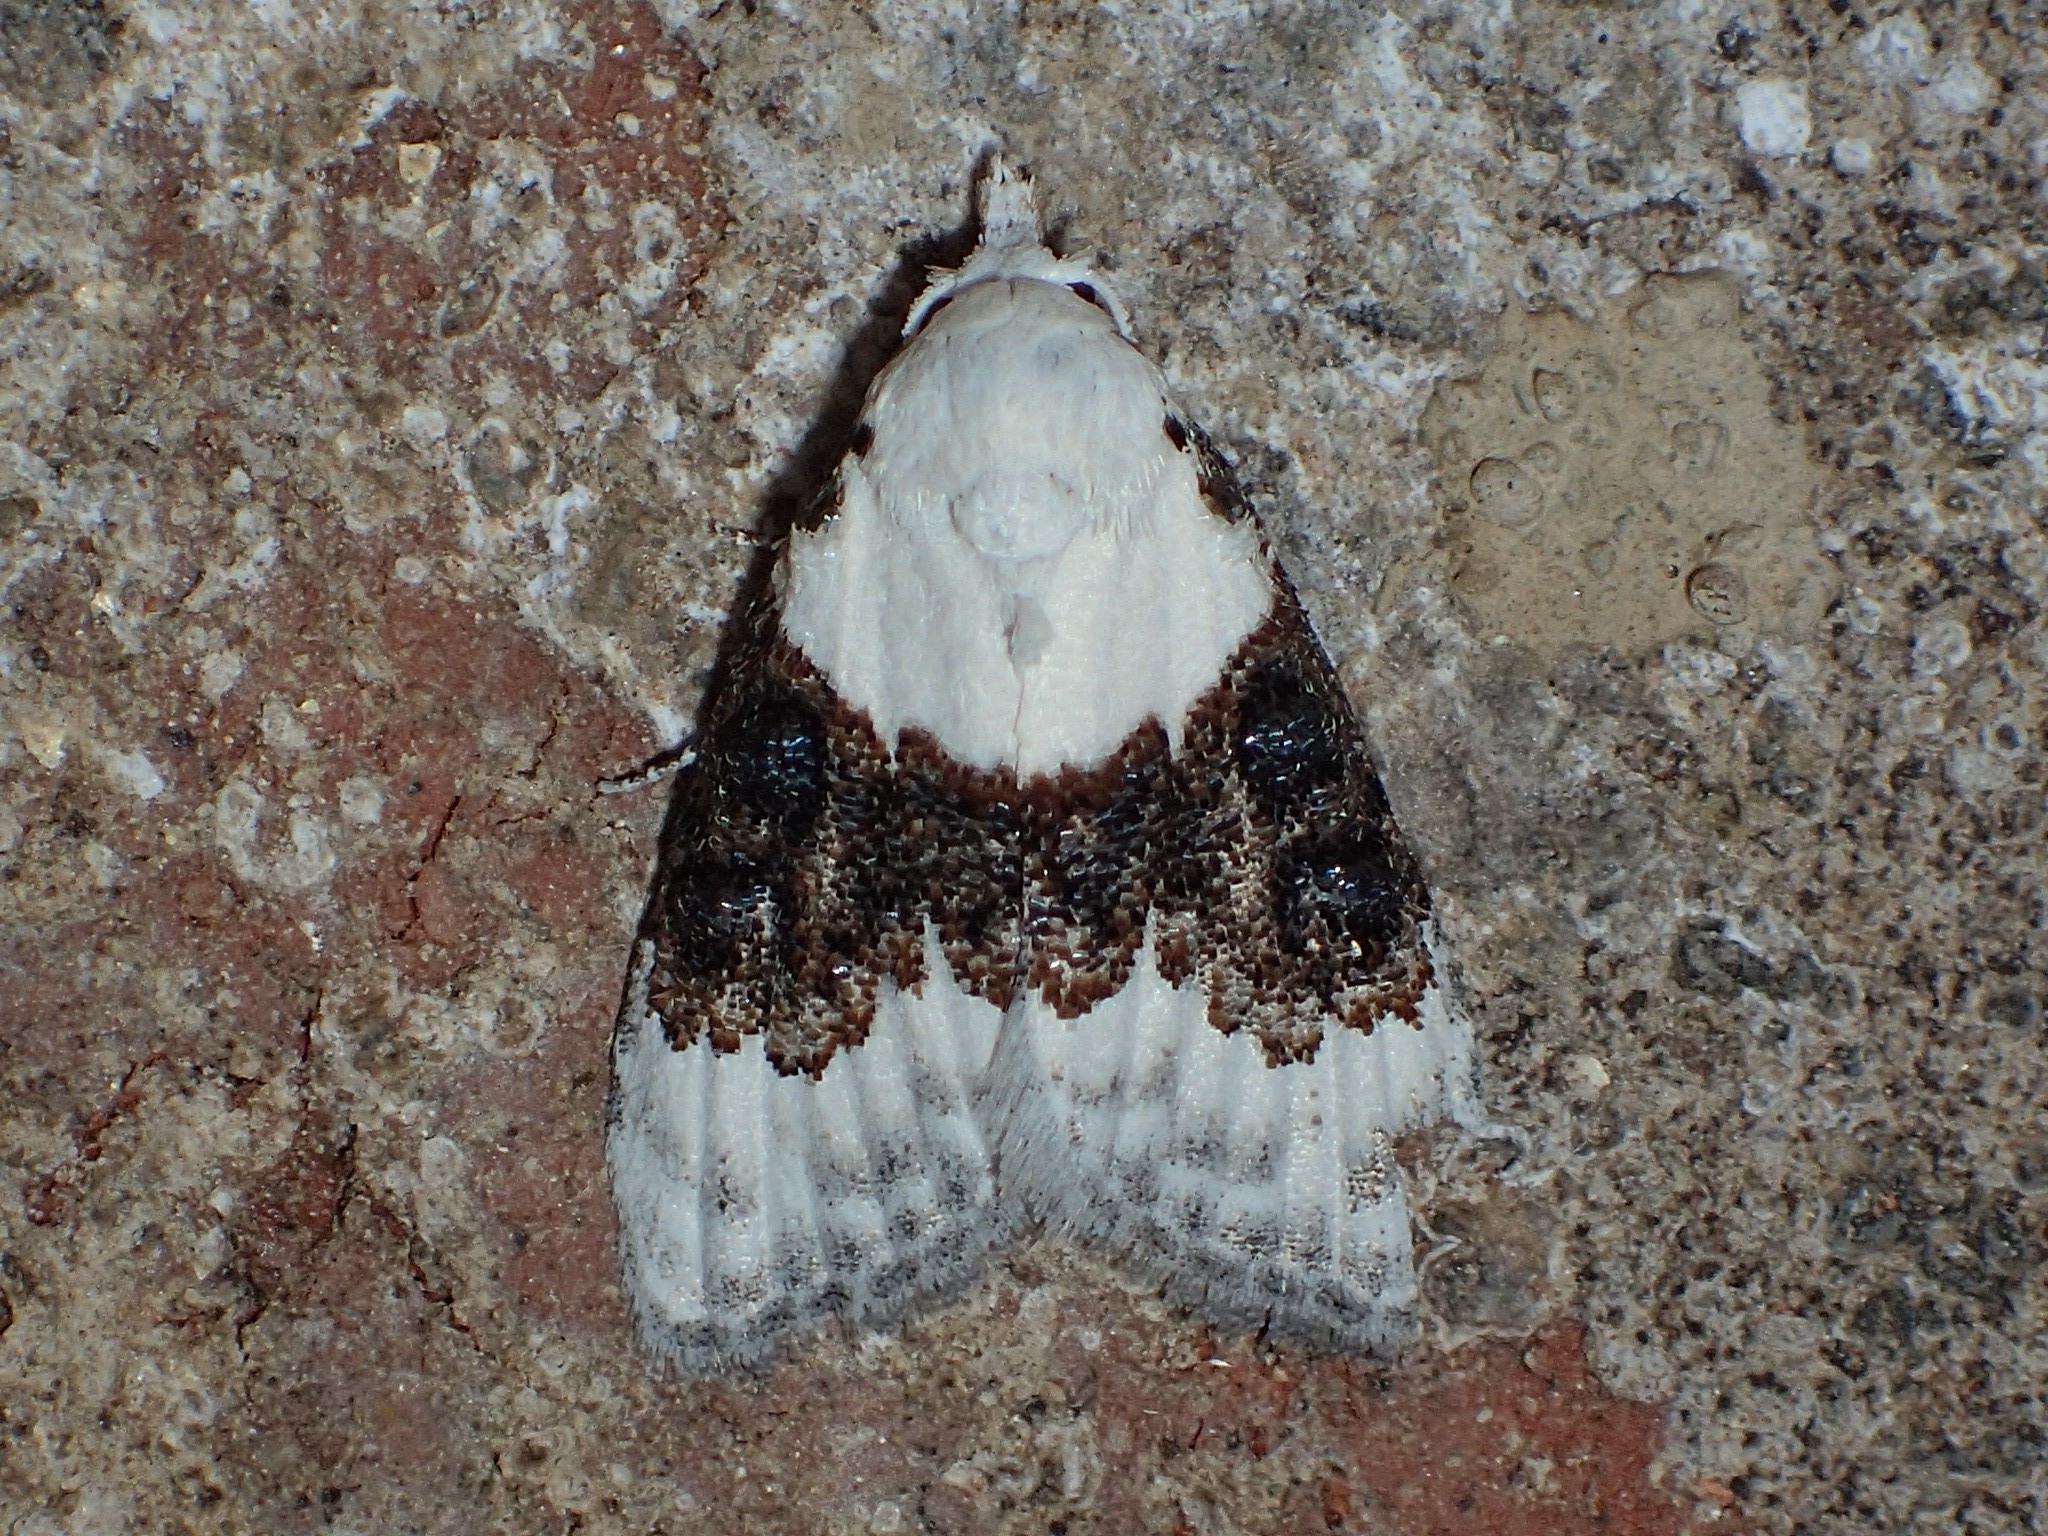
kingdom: Animalia
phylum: Arthropoda
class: Insecta
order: Lepidoptera
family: Nolidae
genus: Nola
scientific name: Nola pustulata
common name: Sharp-blotched nola moth
